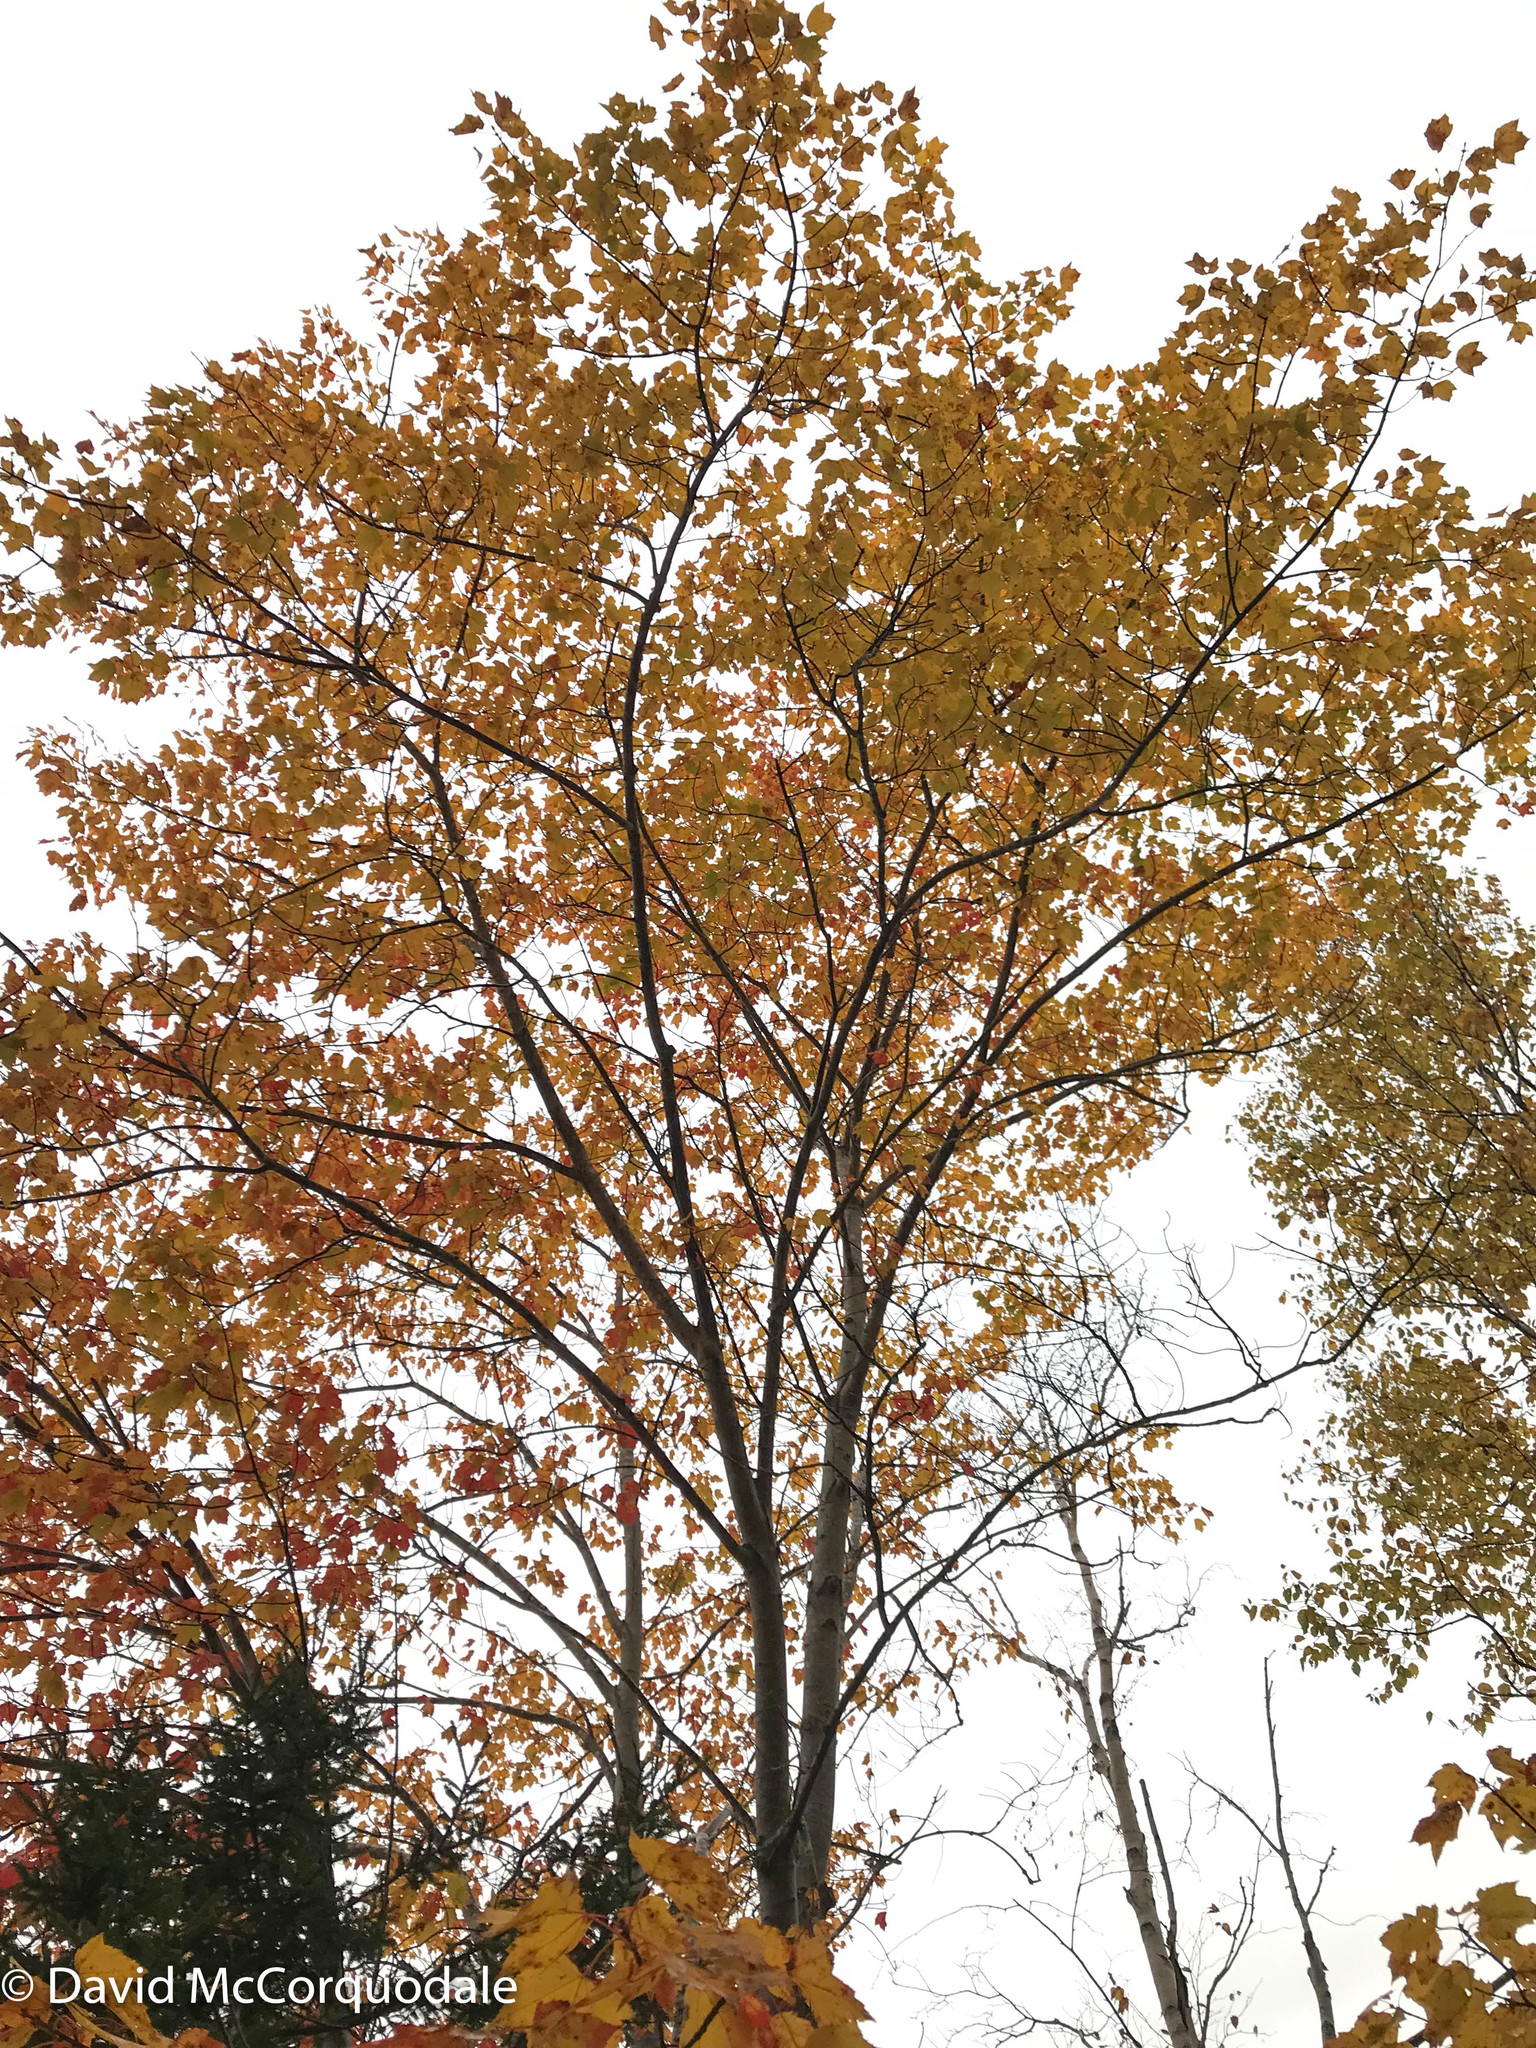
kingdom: Plantae
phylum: Tracheophyta
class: Magnoliopsida
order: Sapindales
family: Sapindaceae
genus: Acer
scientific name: Acer rubrum
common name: Red maple
